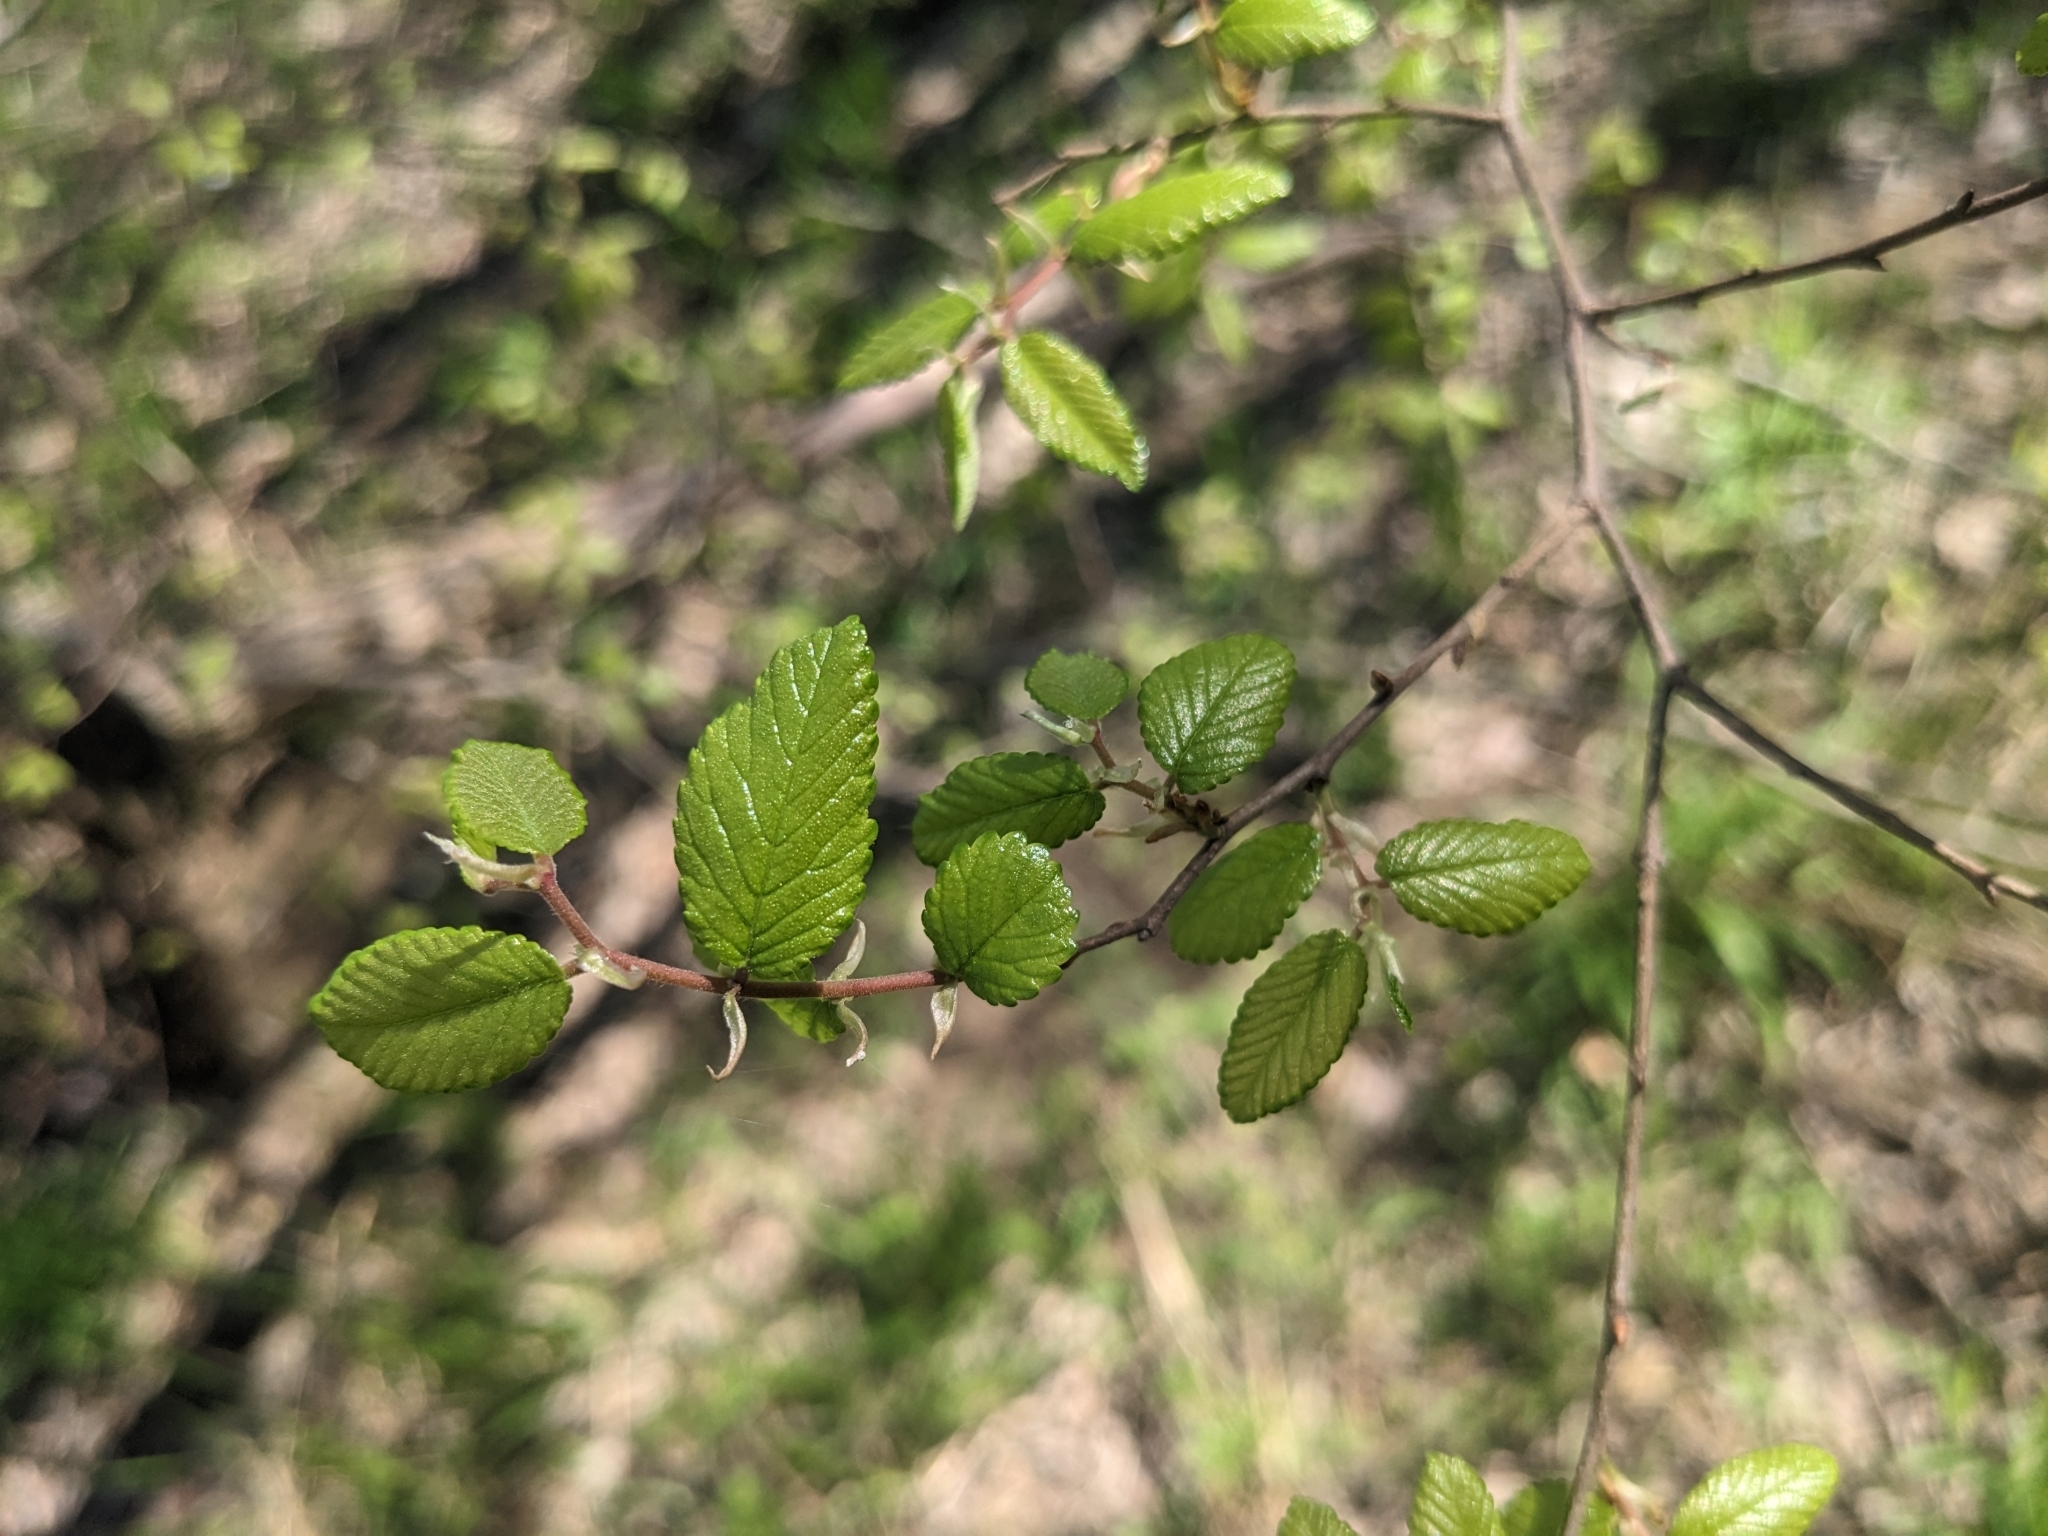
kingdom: Plantae
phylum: Tracheophyta
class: Magnoliopsida
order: Rosales
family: Ulmaceae
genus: Ulmus
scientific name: Ulmus crassifolia
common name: Basket elm
